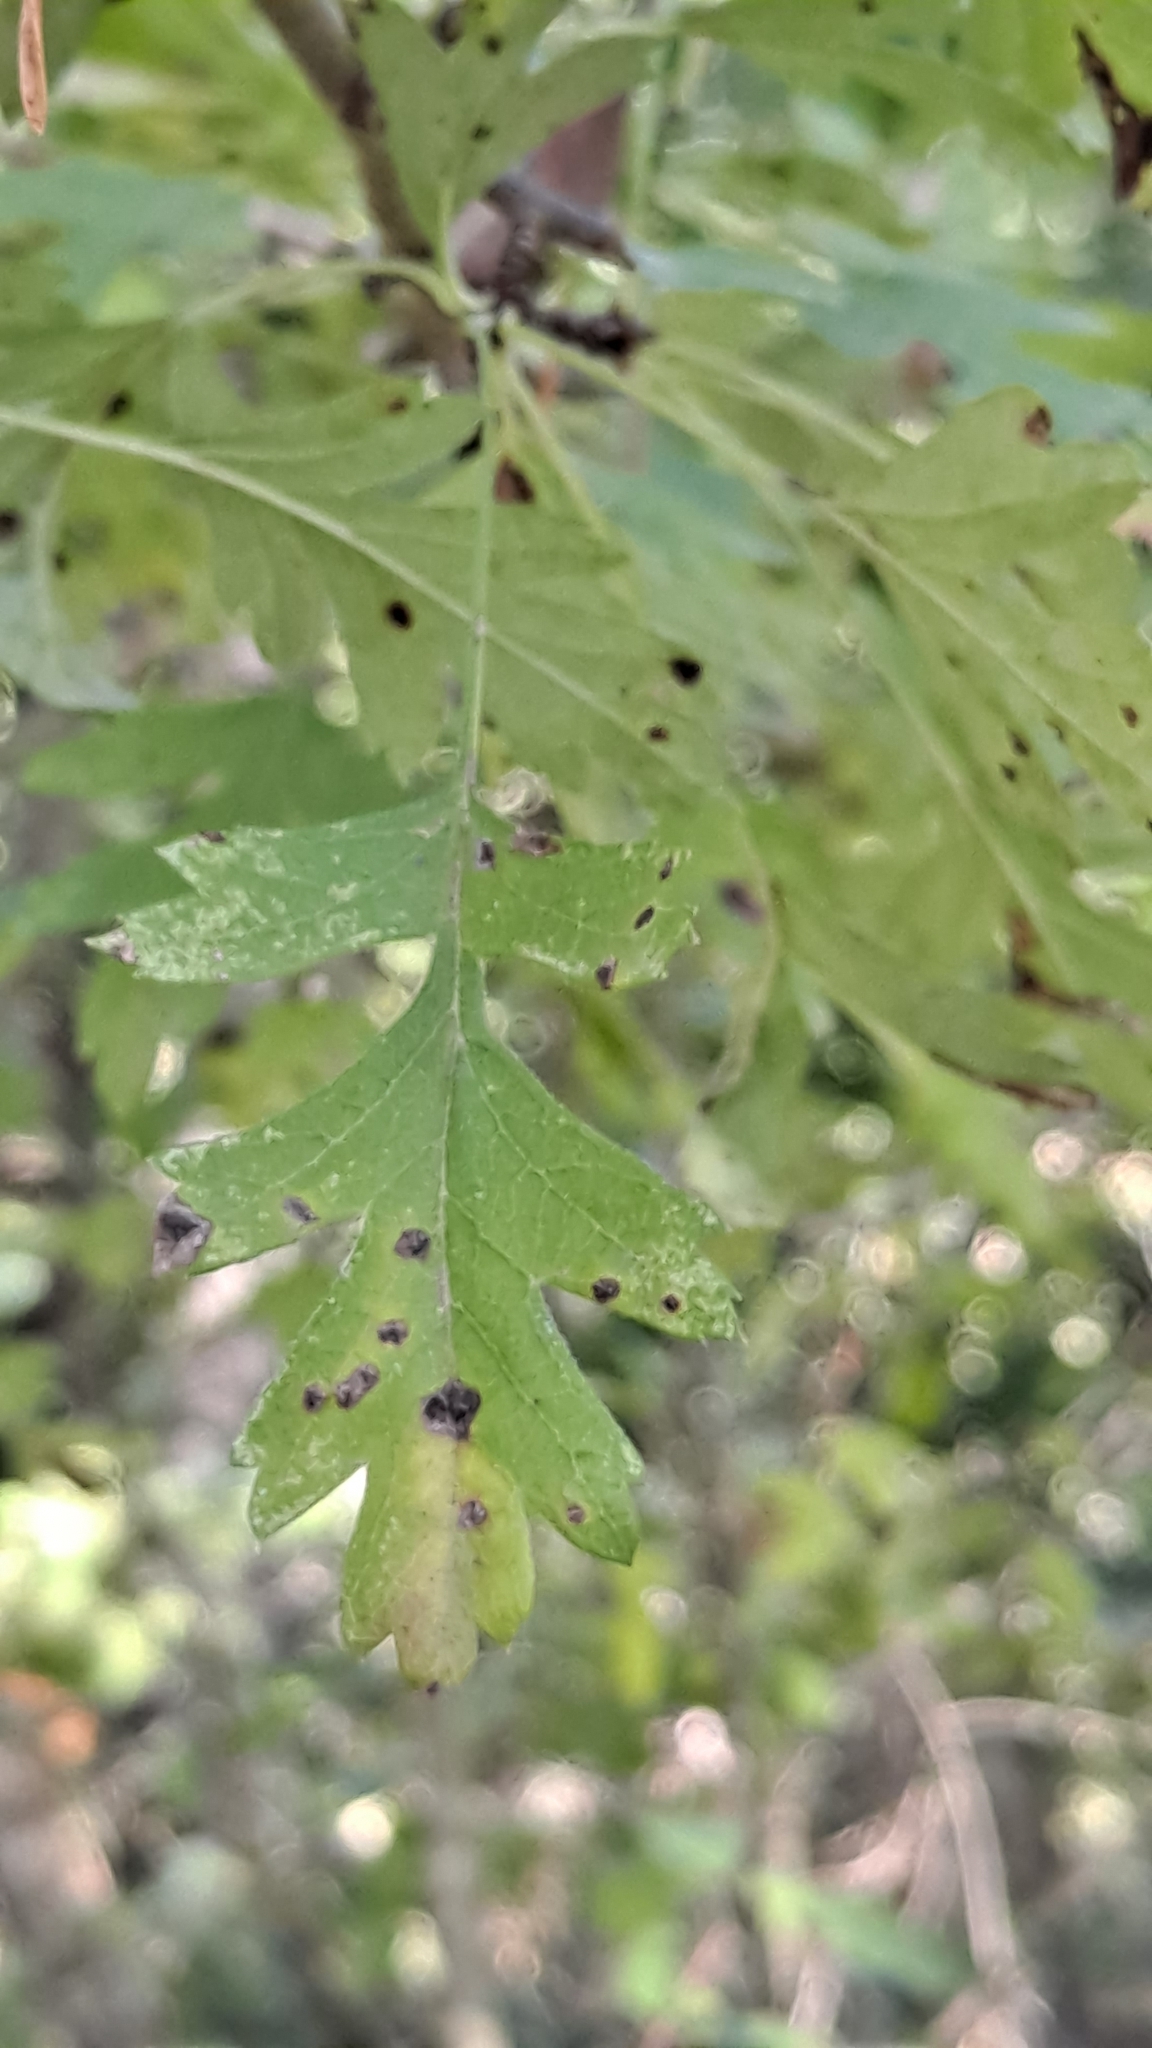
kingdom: Plantae
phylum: Tracheophyta
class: Magnoliopsida
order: Rosales
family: Rosaceae
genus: Crataegus
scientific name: Crataegus monogyna
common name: Hawthorn
